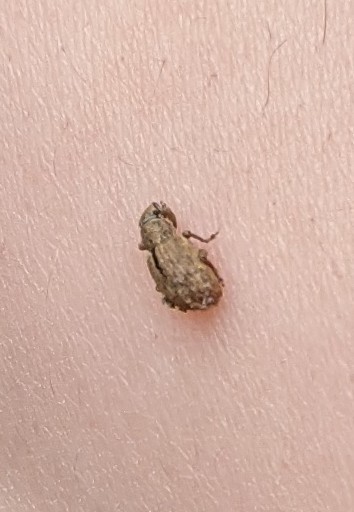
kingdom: Animalia
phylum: Arthropoda
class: Insecta
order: Coleoptera
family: Curculionidae
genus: Strophosoma
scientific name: Strophosoma melanogrammum
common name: Weevil
